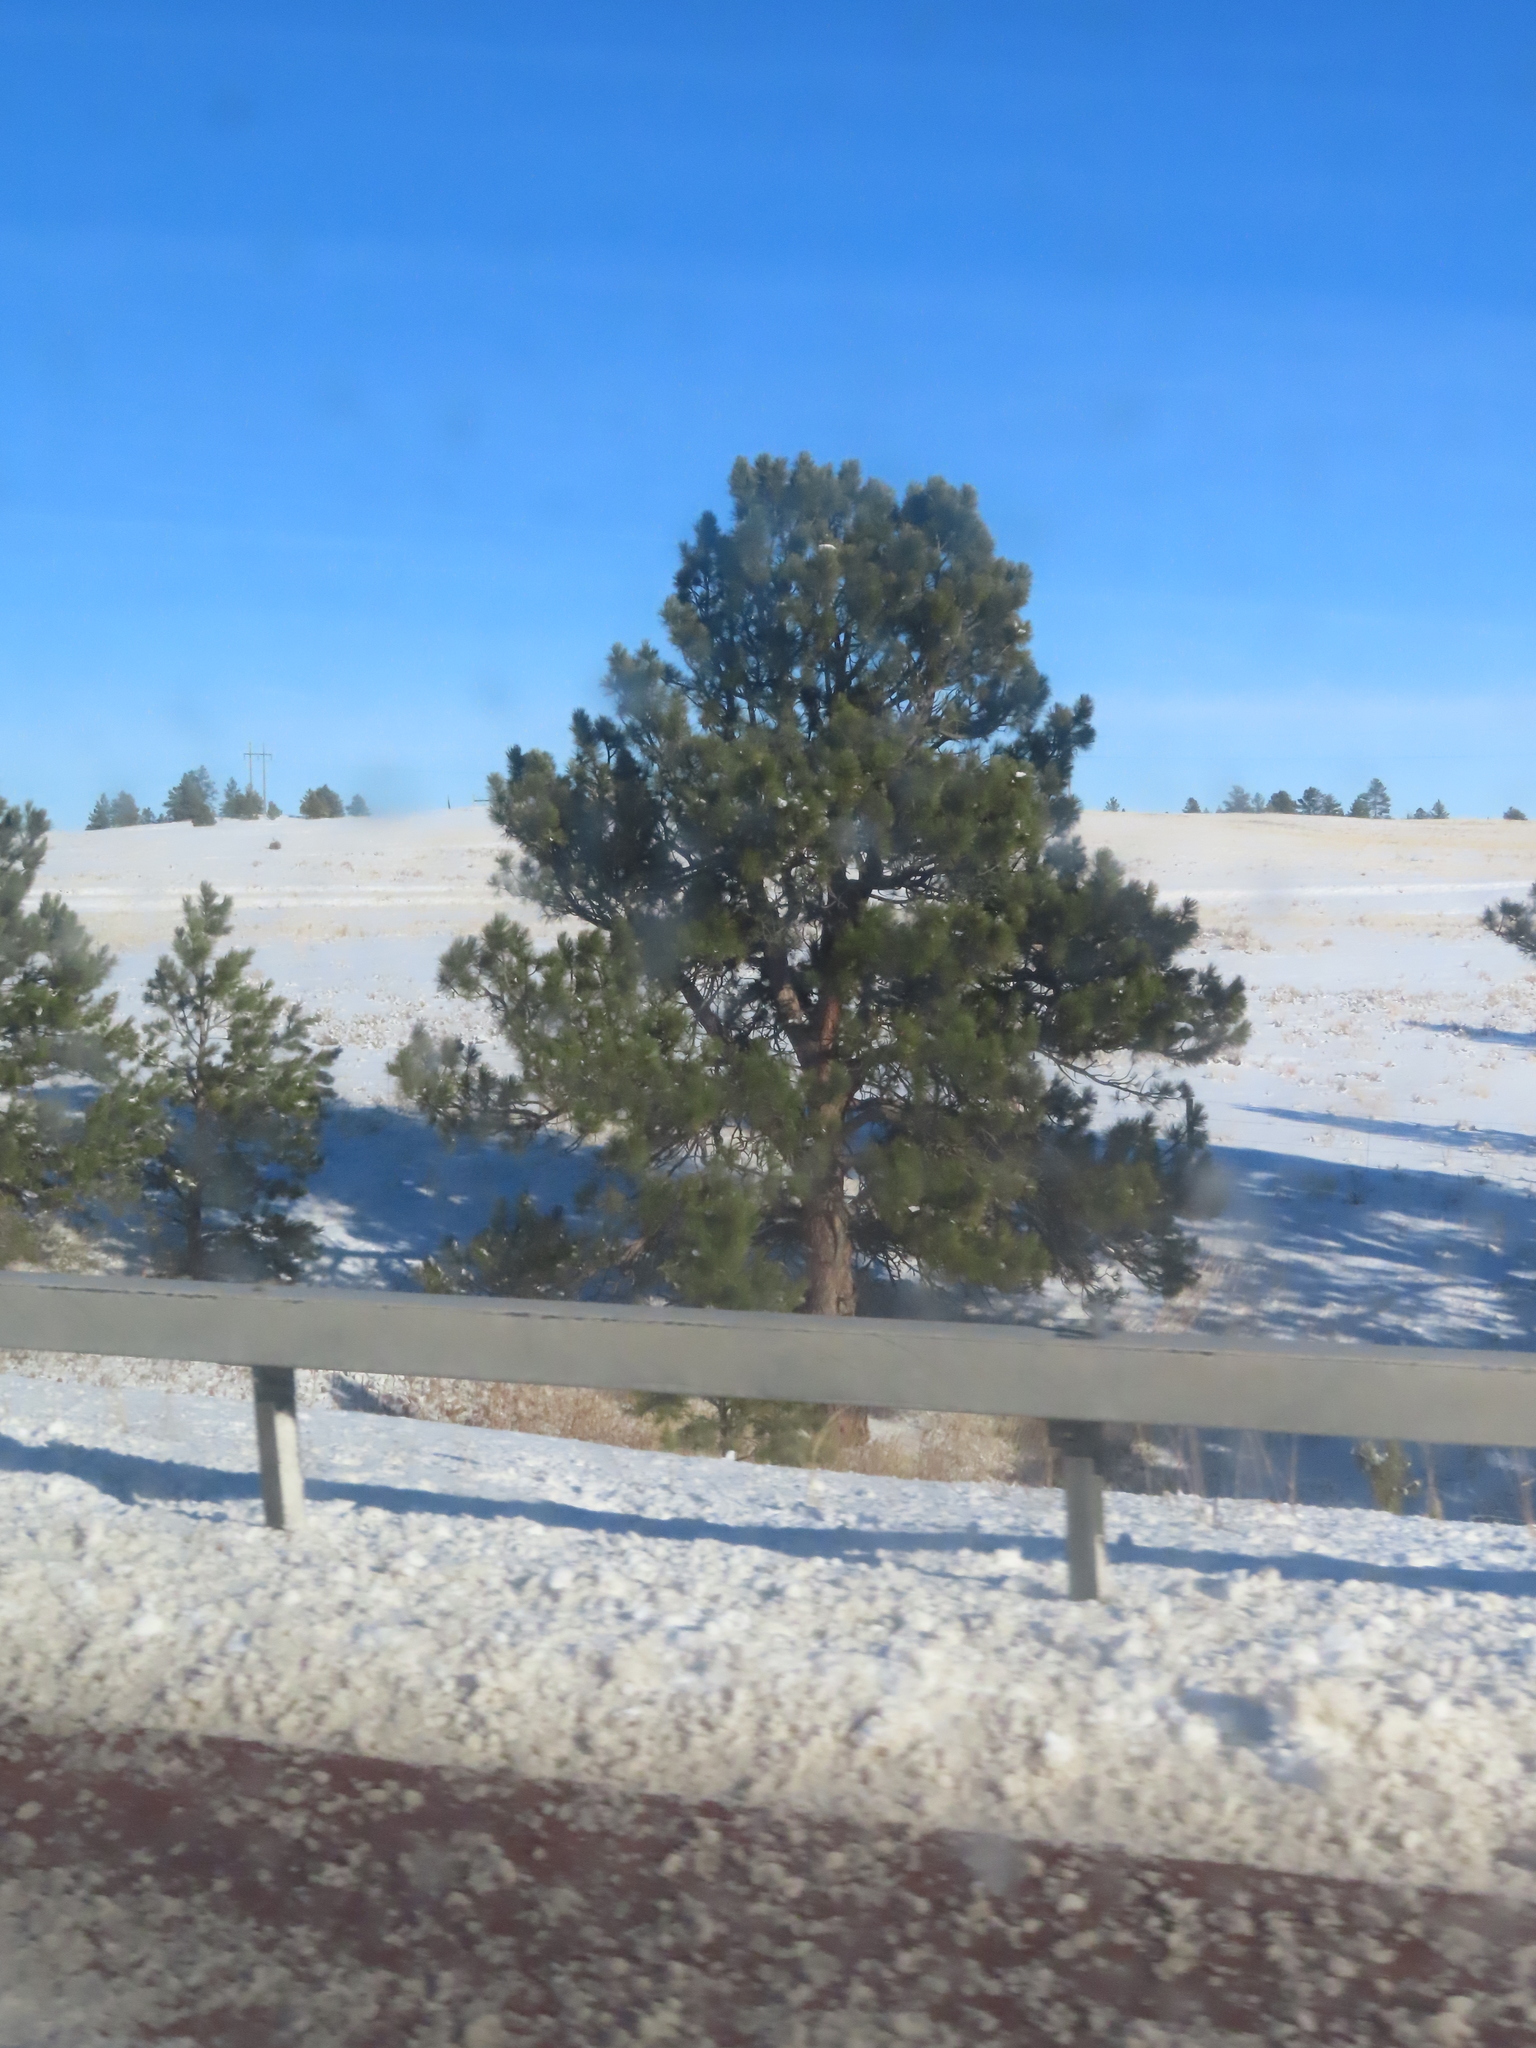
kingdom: Plantae
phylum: Tracheophyta
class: Pinopsida
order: Pinales
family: Pinaceae
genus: Pinus
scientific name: Pinus ponderosa
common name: Western yellow-pine
